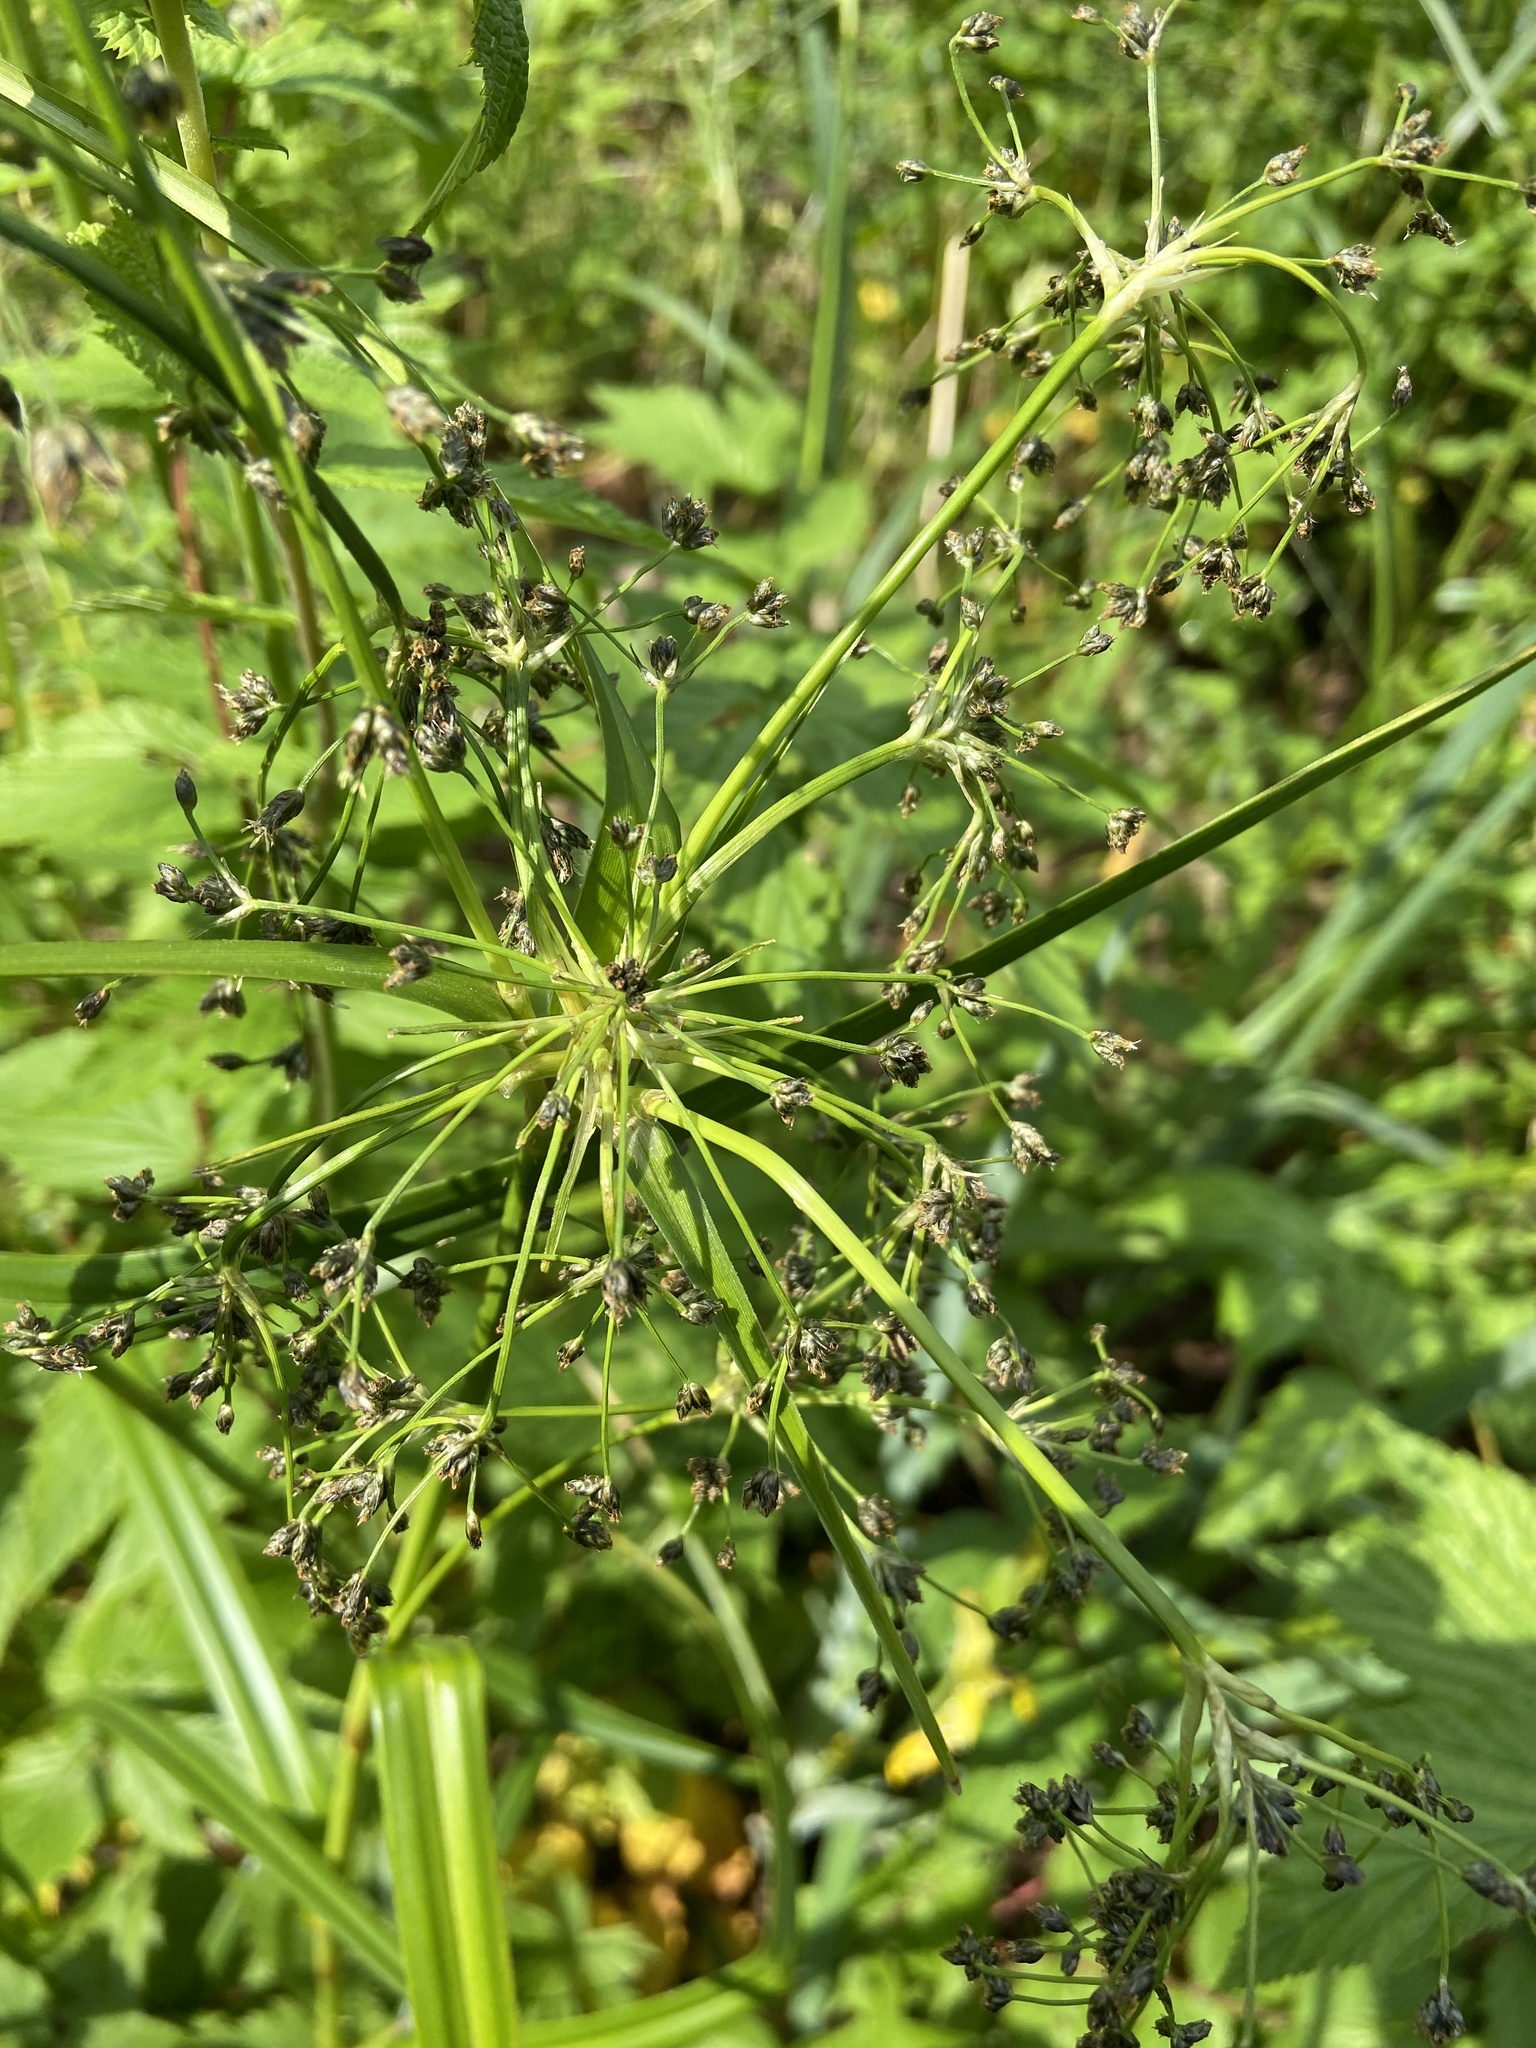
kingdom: Plantae
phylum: Tracheophyta
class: Liliopsida
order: Poales
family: Cyperaceae
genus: Scirpus
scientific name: Scirpus sylvaticus
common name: Wood club-rush
